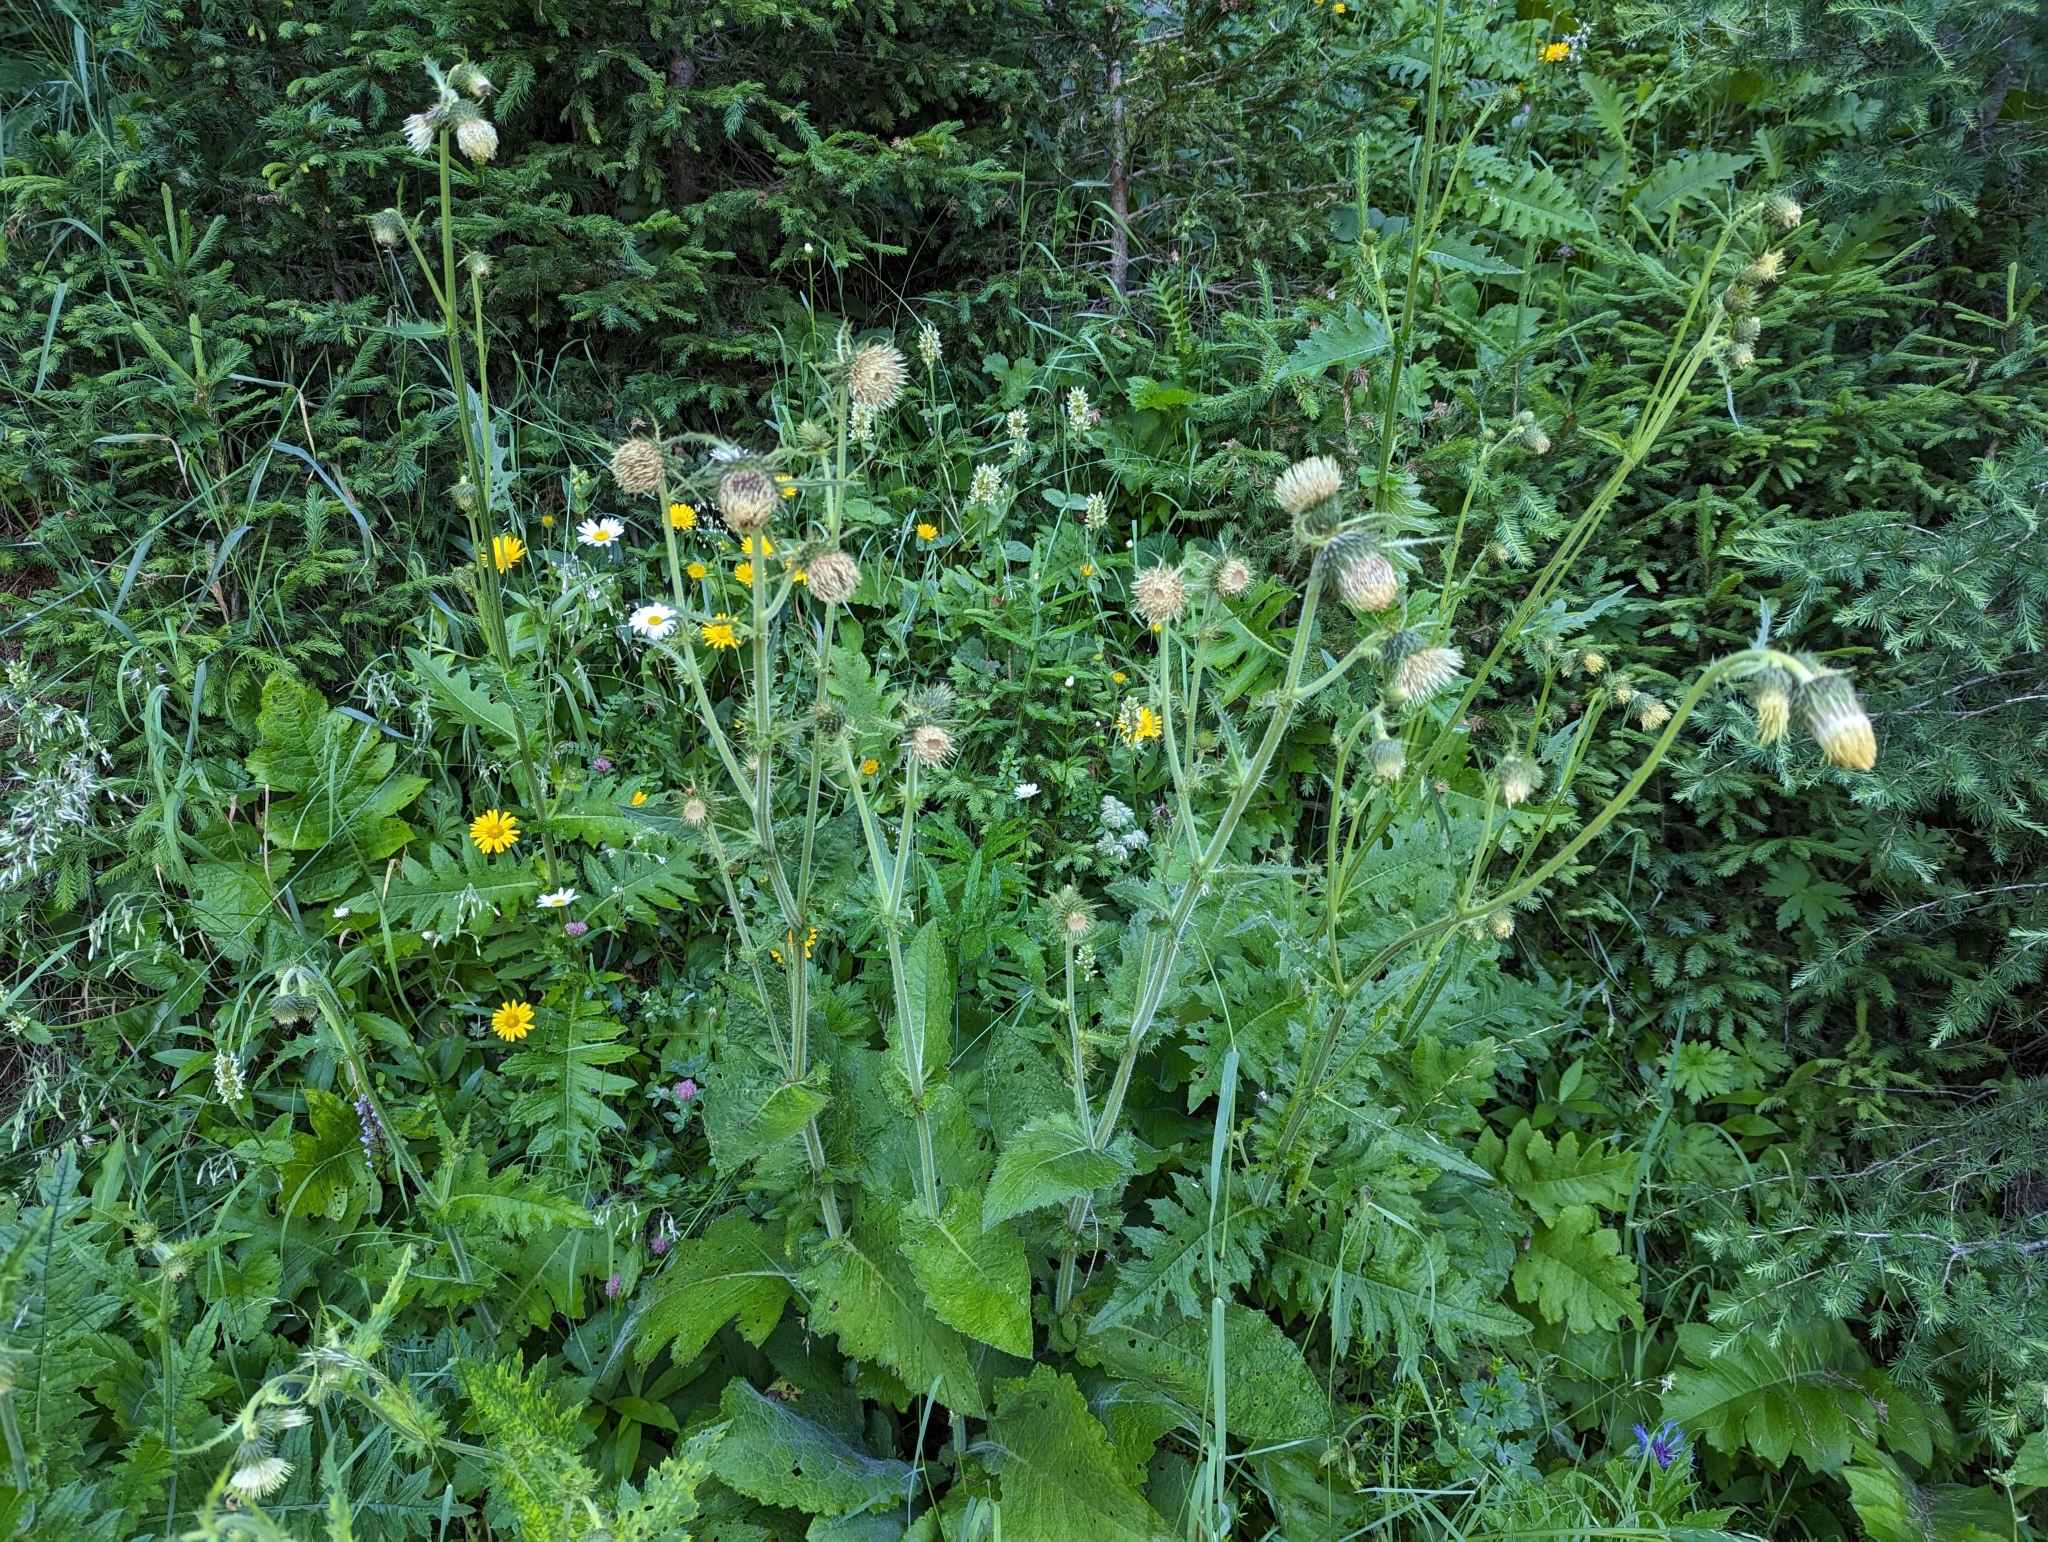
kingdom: Plantae
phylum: Tracheophyta
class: Magnoliopsida
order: Asterales
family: Asteraceae
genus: Cirsium
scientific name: Cirsium erisithales
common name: Yellow thistle
